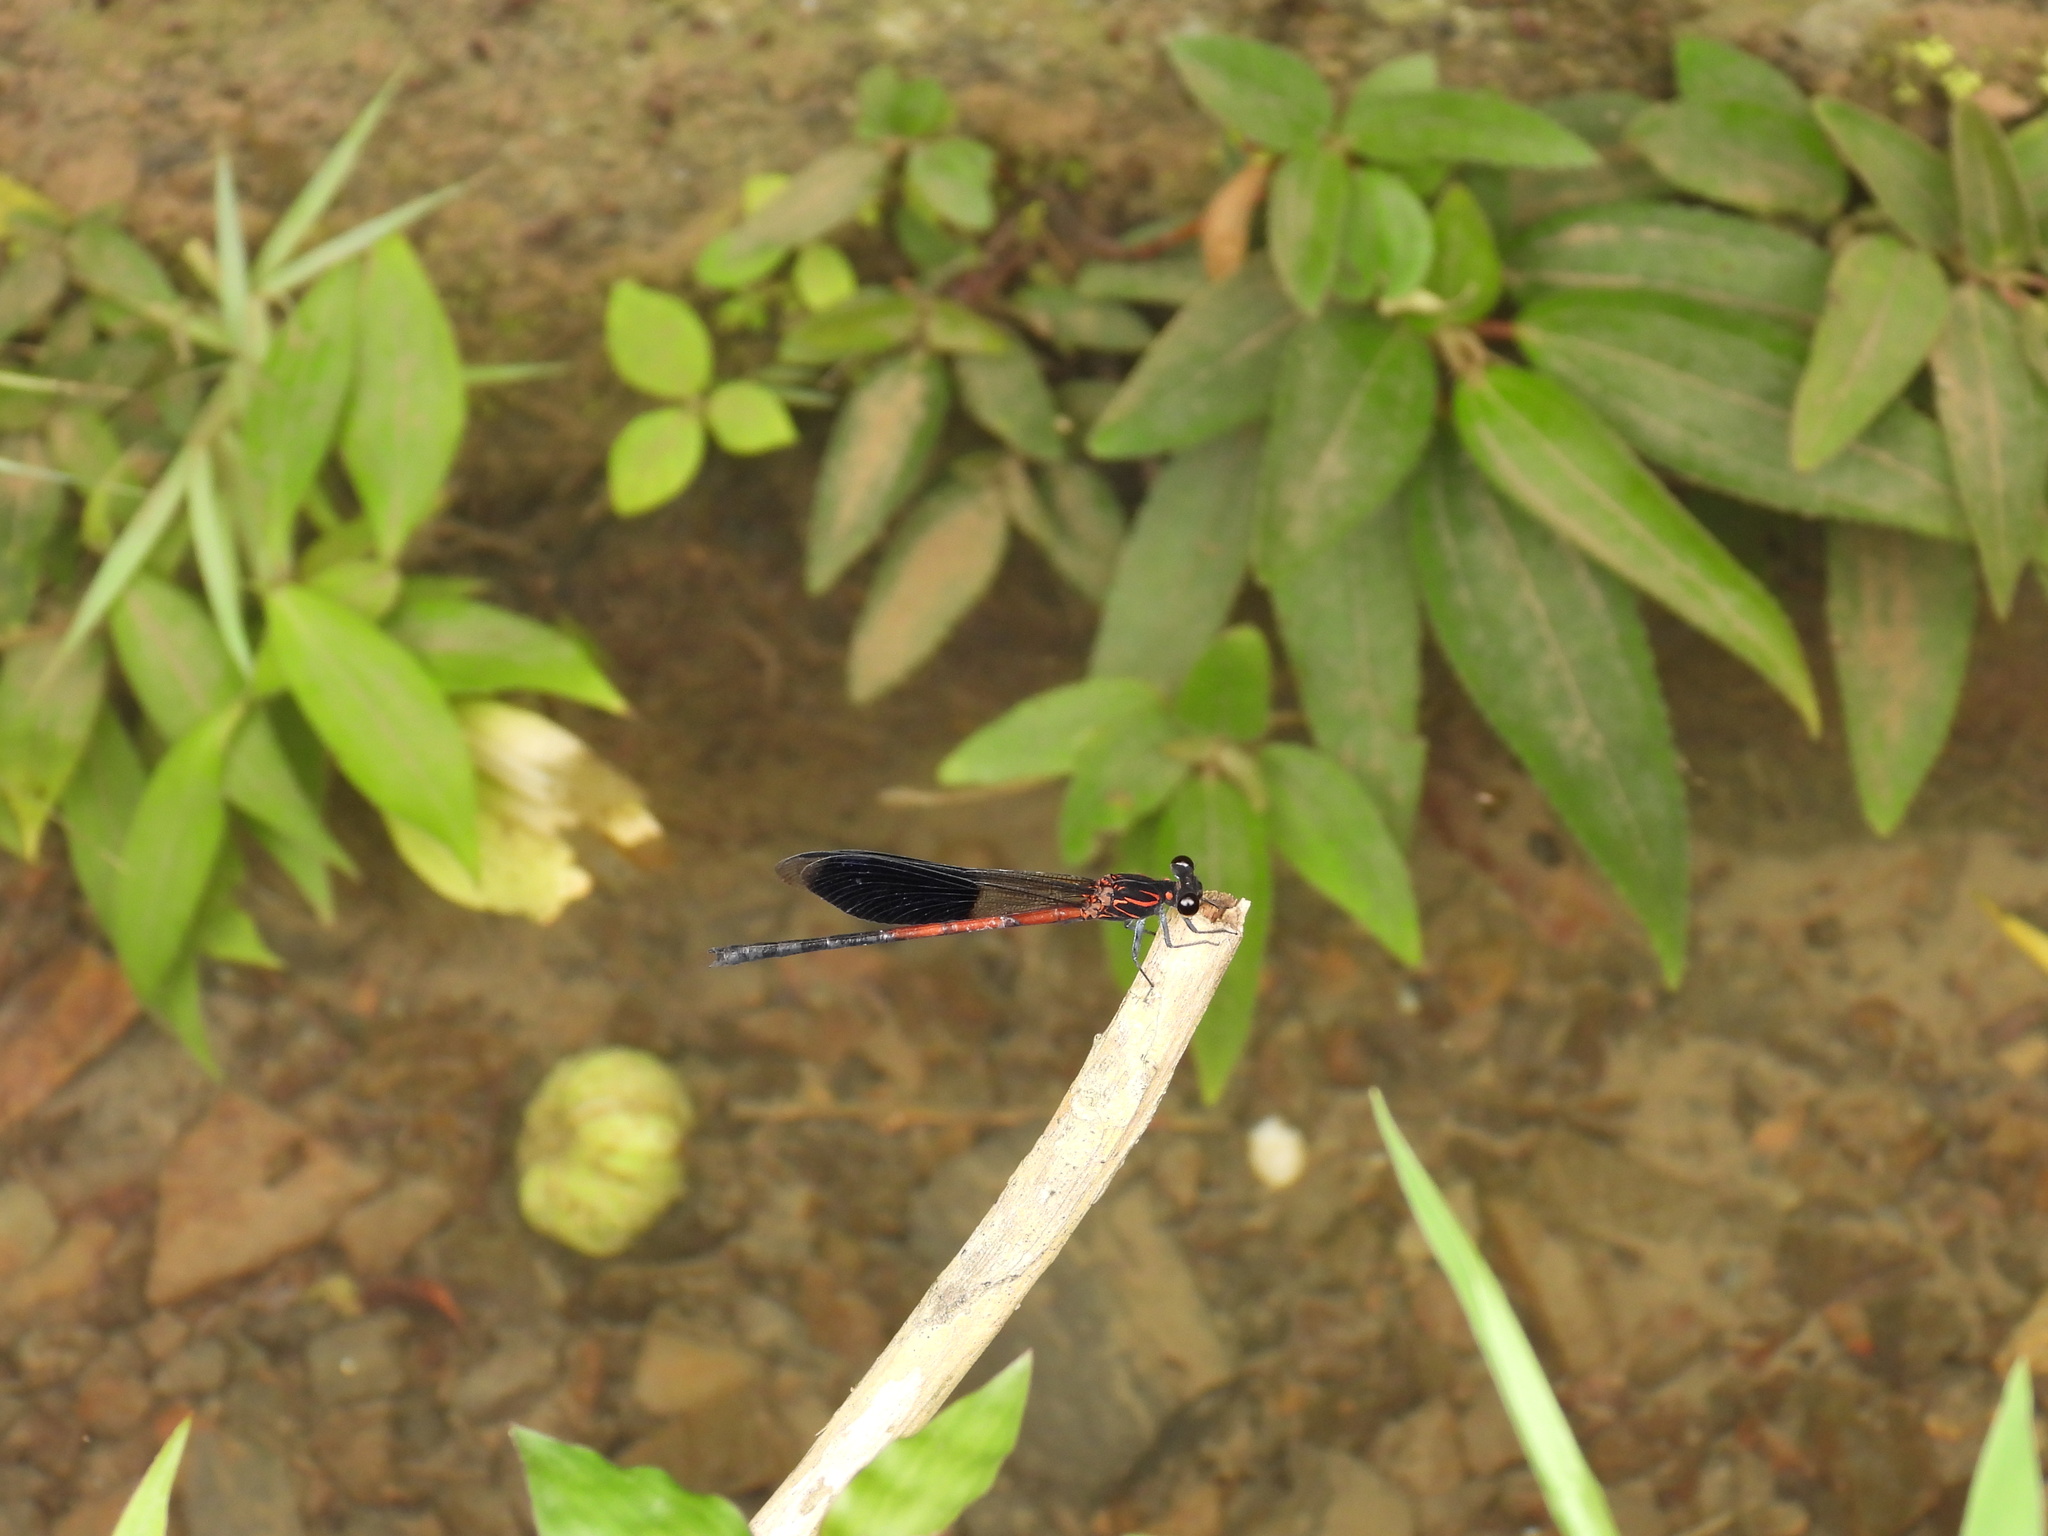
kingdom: Animalia
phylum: Arthropoda
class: Insecta
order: Odonata
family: Euphaeidae
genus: Euphaea
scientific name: Euphaea formosa
